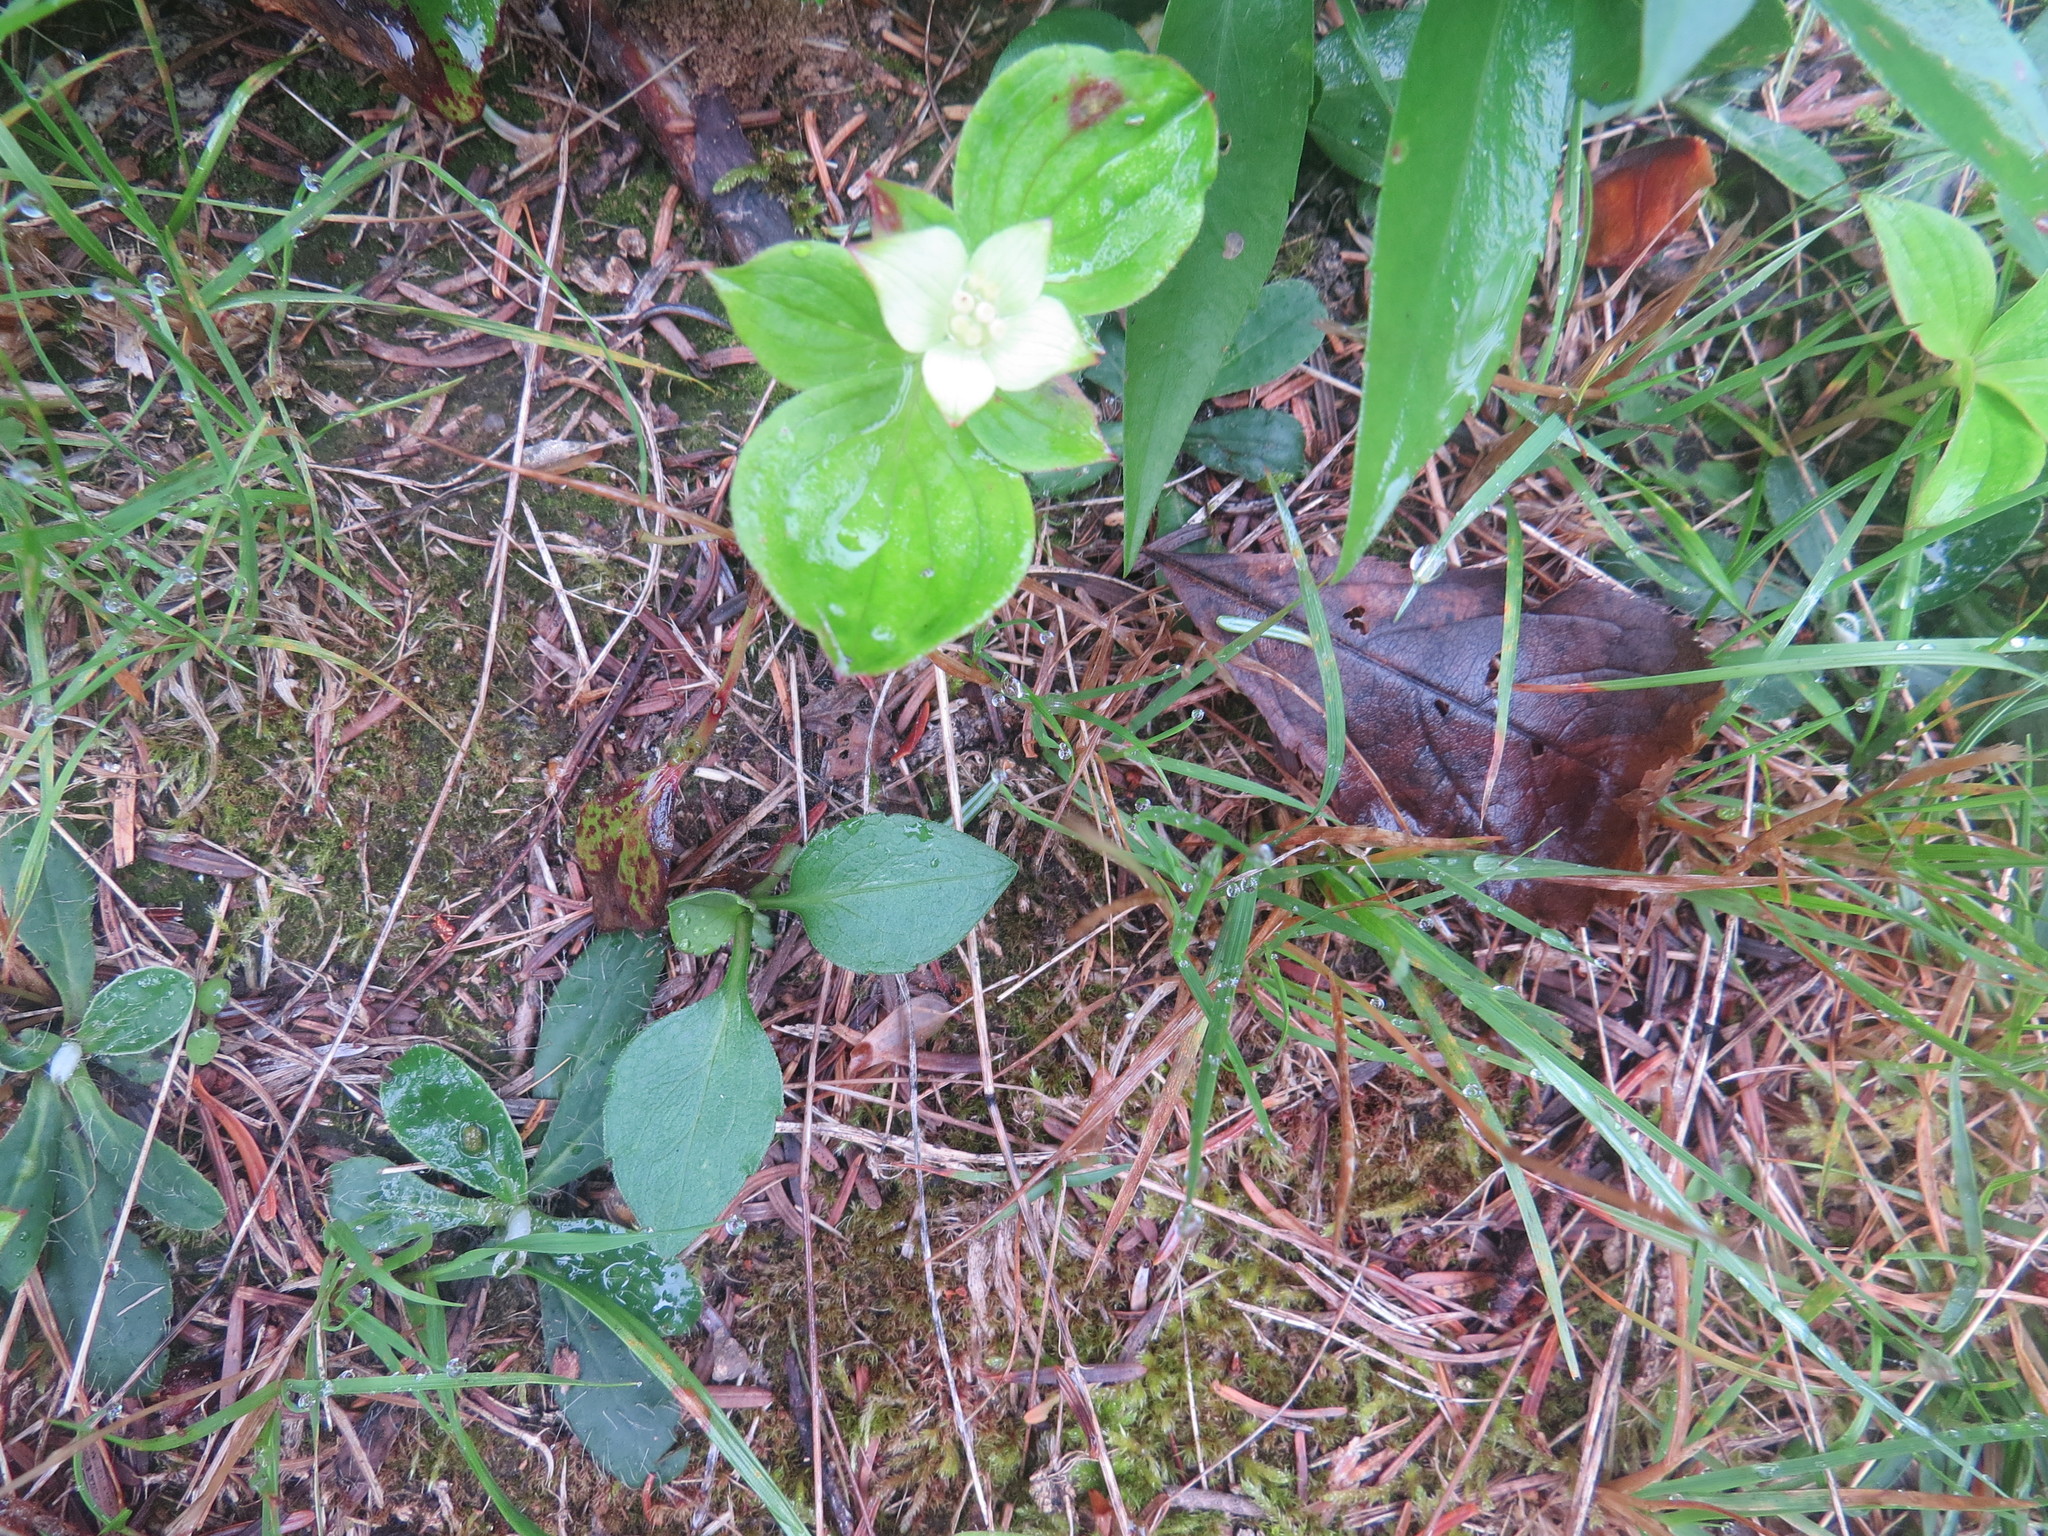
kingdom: Plantae
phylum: Tracheophyta
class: Magnoliopsida
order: Cornales
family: Cornaceae
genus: Cornus
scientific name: Cornus canadensis
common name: Creeping dogwood
